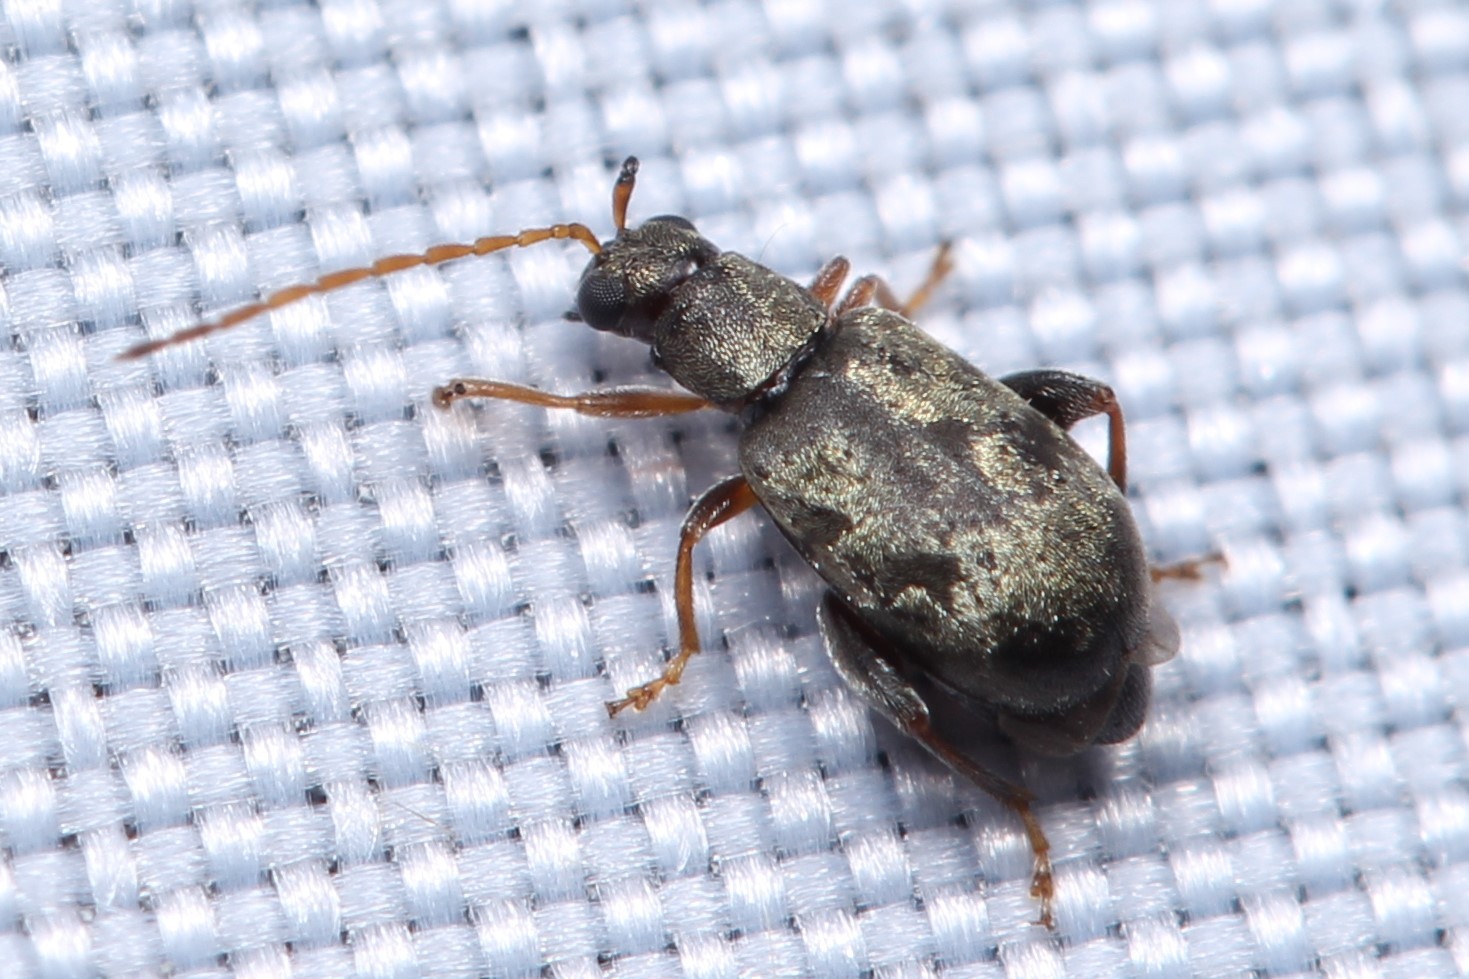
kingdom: Animalia
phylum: Arthropoda
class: Insecta
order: Coleoptera
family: Chrysomelidae
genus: Hespera
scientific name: Hespera lomasa
